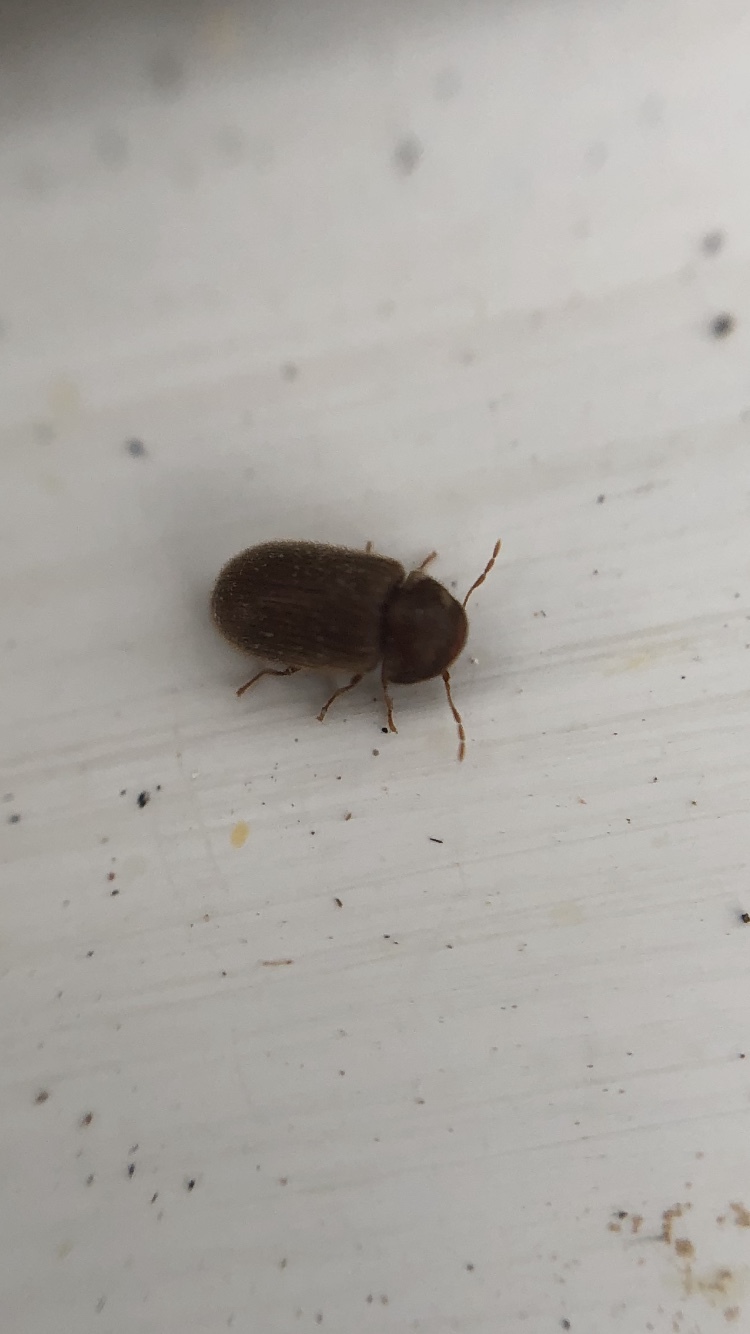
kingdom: Animalia
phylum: Arthropoda
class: Insecta
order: Coleoptera
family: Anobiidae
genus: Stegobium
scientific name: Stegobium paniceum
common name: Drugstore beetle
